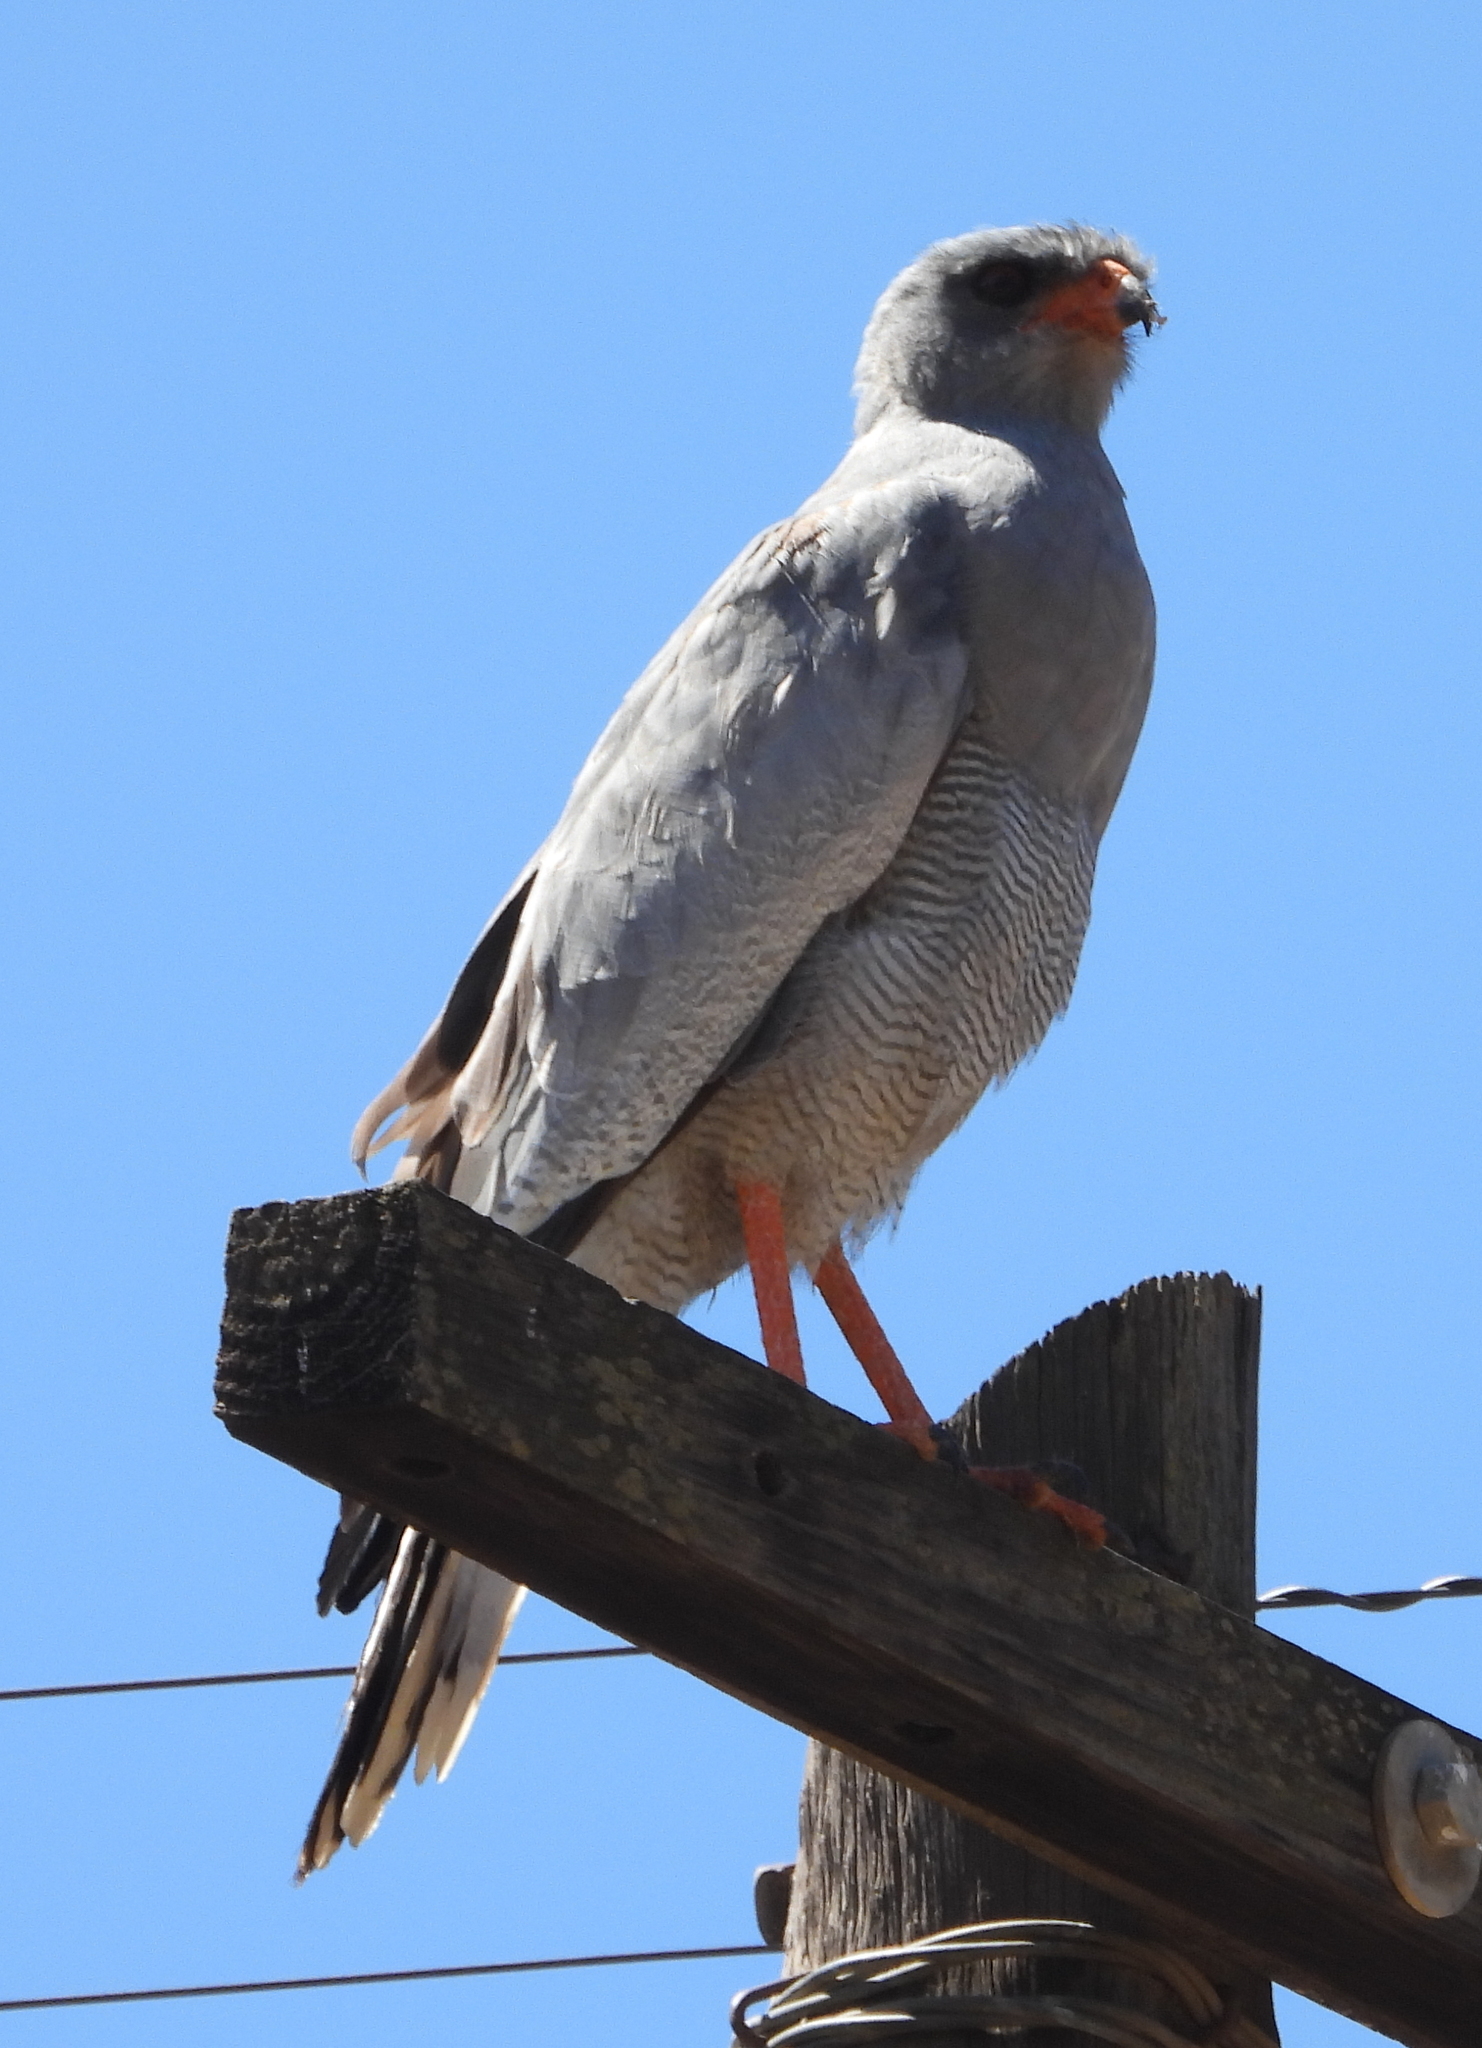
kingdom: Animalia
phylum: Chordata
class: Aves
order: Accipitriformes
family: Accipitridae
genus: Melierax
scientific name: Melierax canorus
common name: Pale chanting-goshawk
